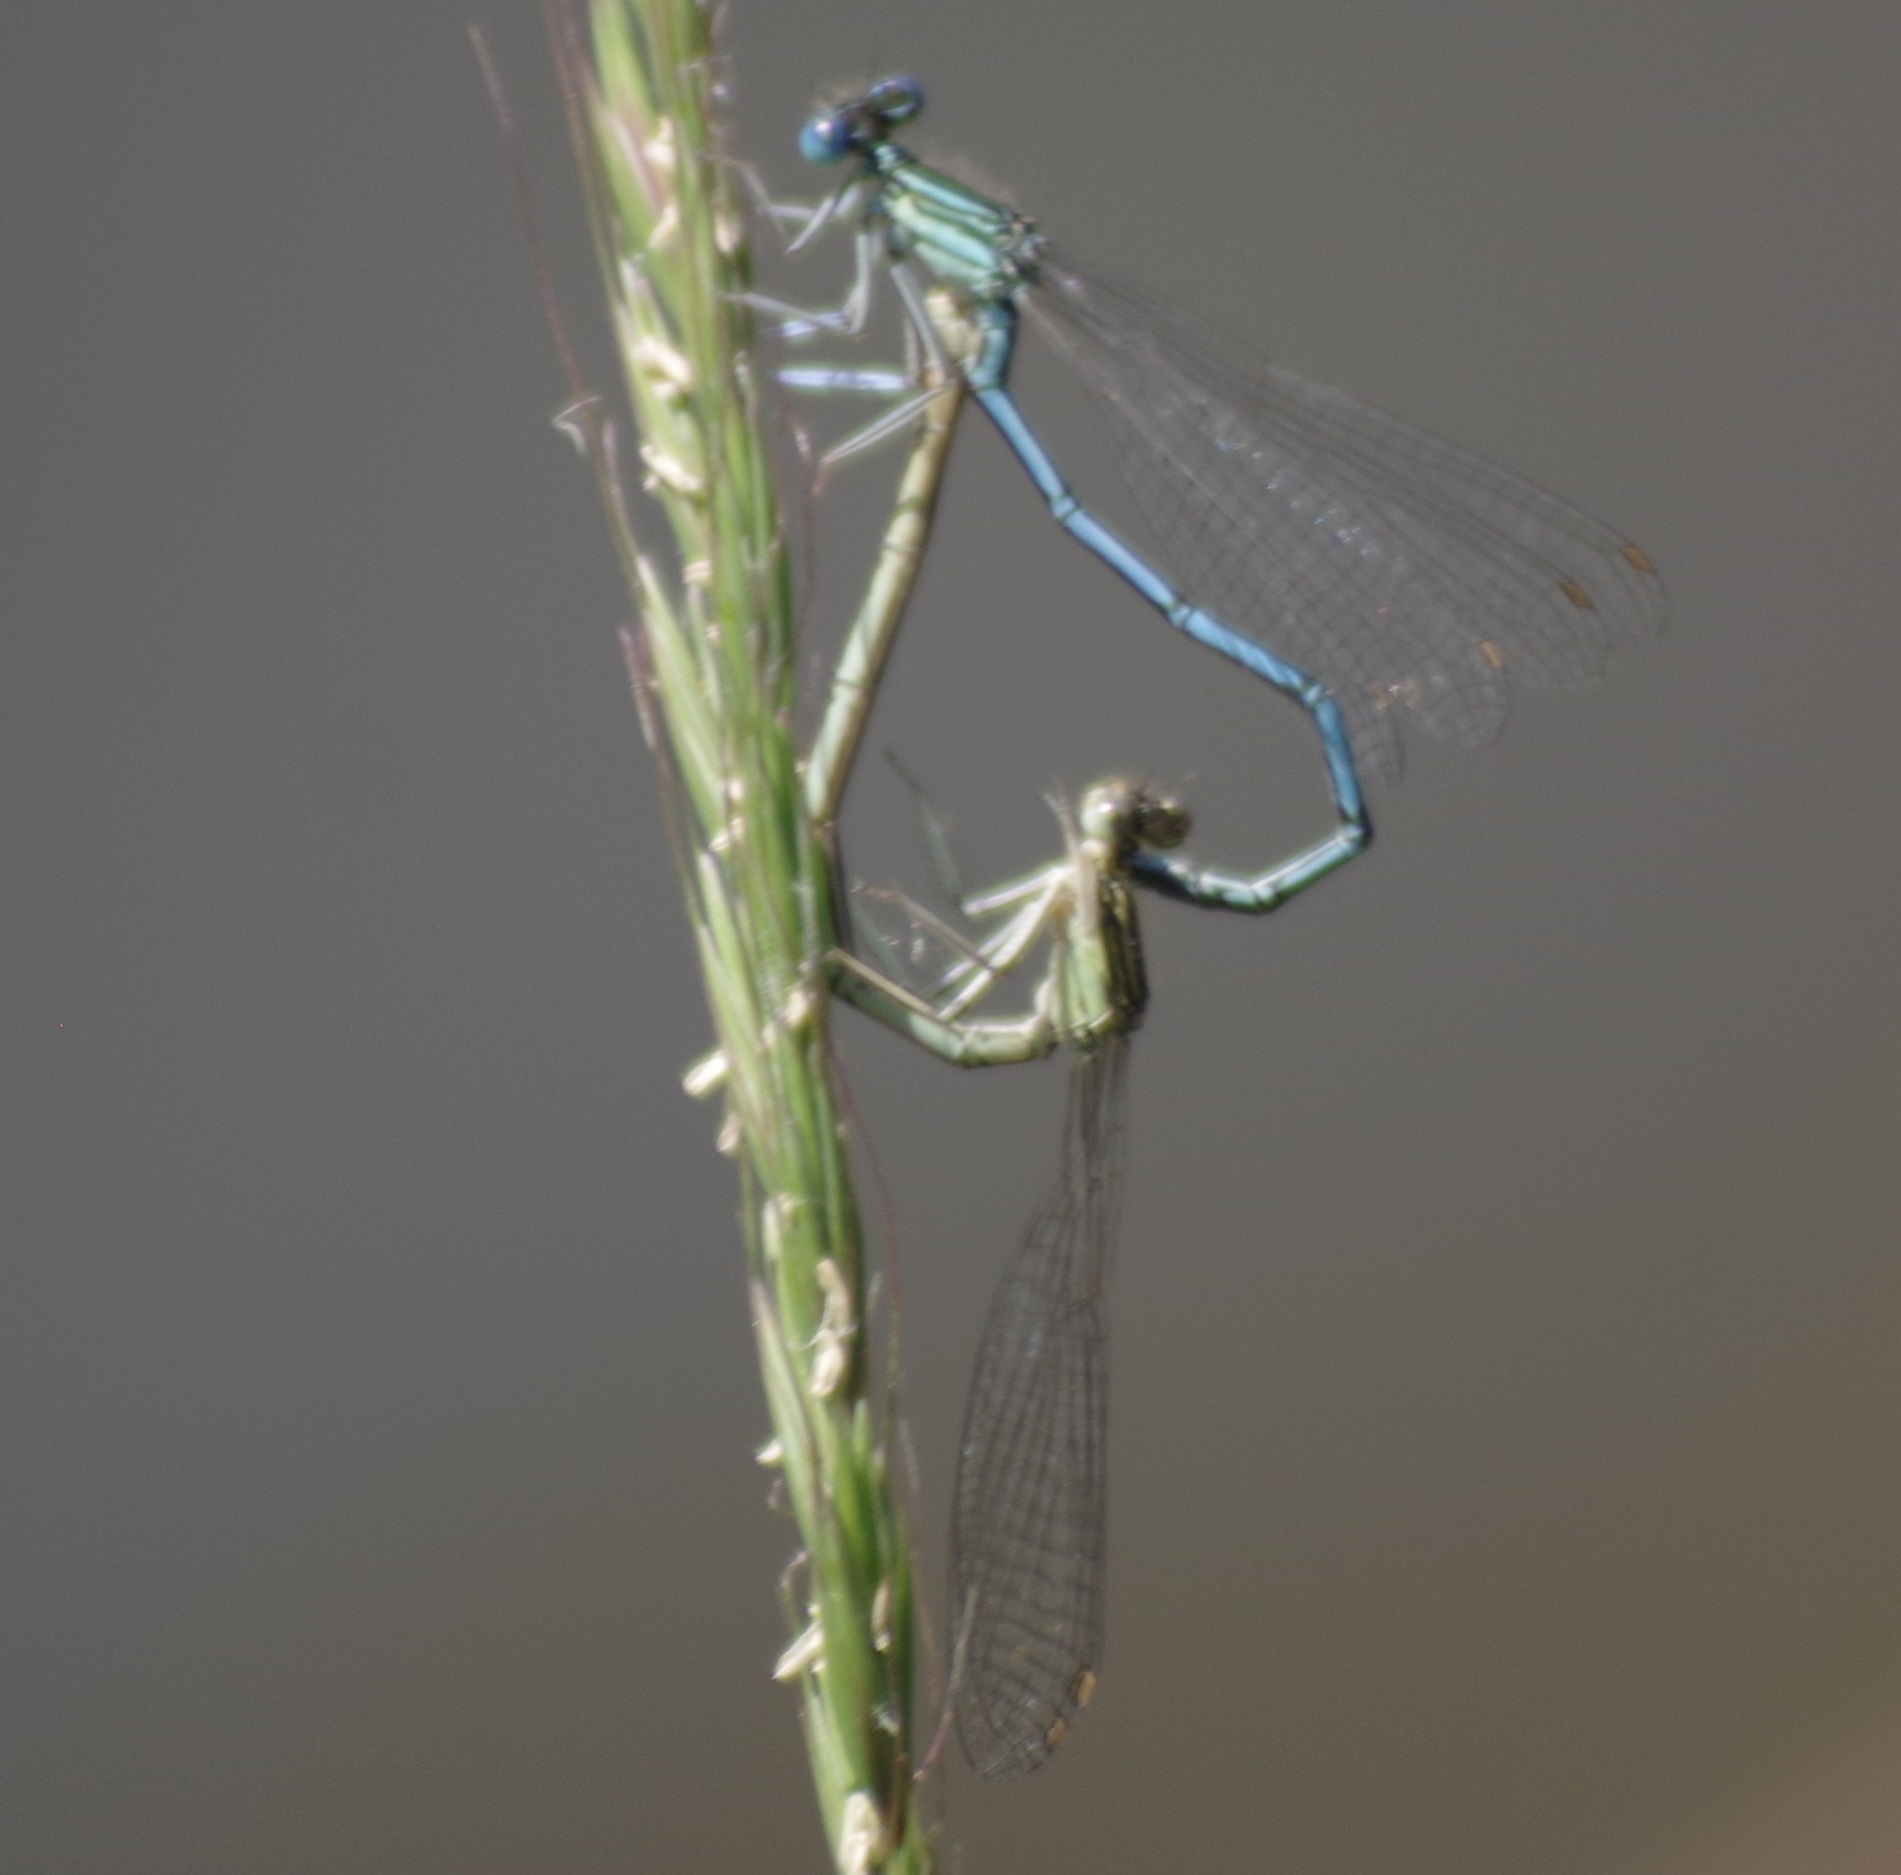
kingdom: Animalia
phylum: Arthropoda
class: Insecta
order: Odonata
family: Platycnemididae
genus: Platycnemis
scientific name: Platycnemis pennipes
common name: White-legged damselfly
